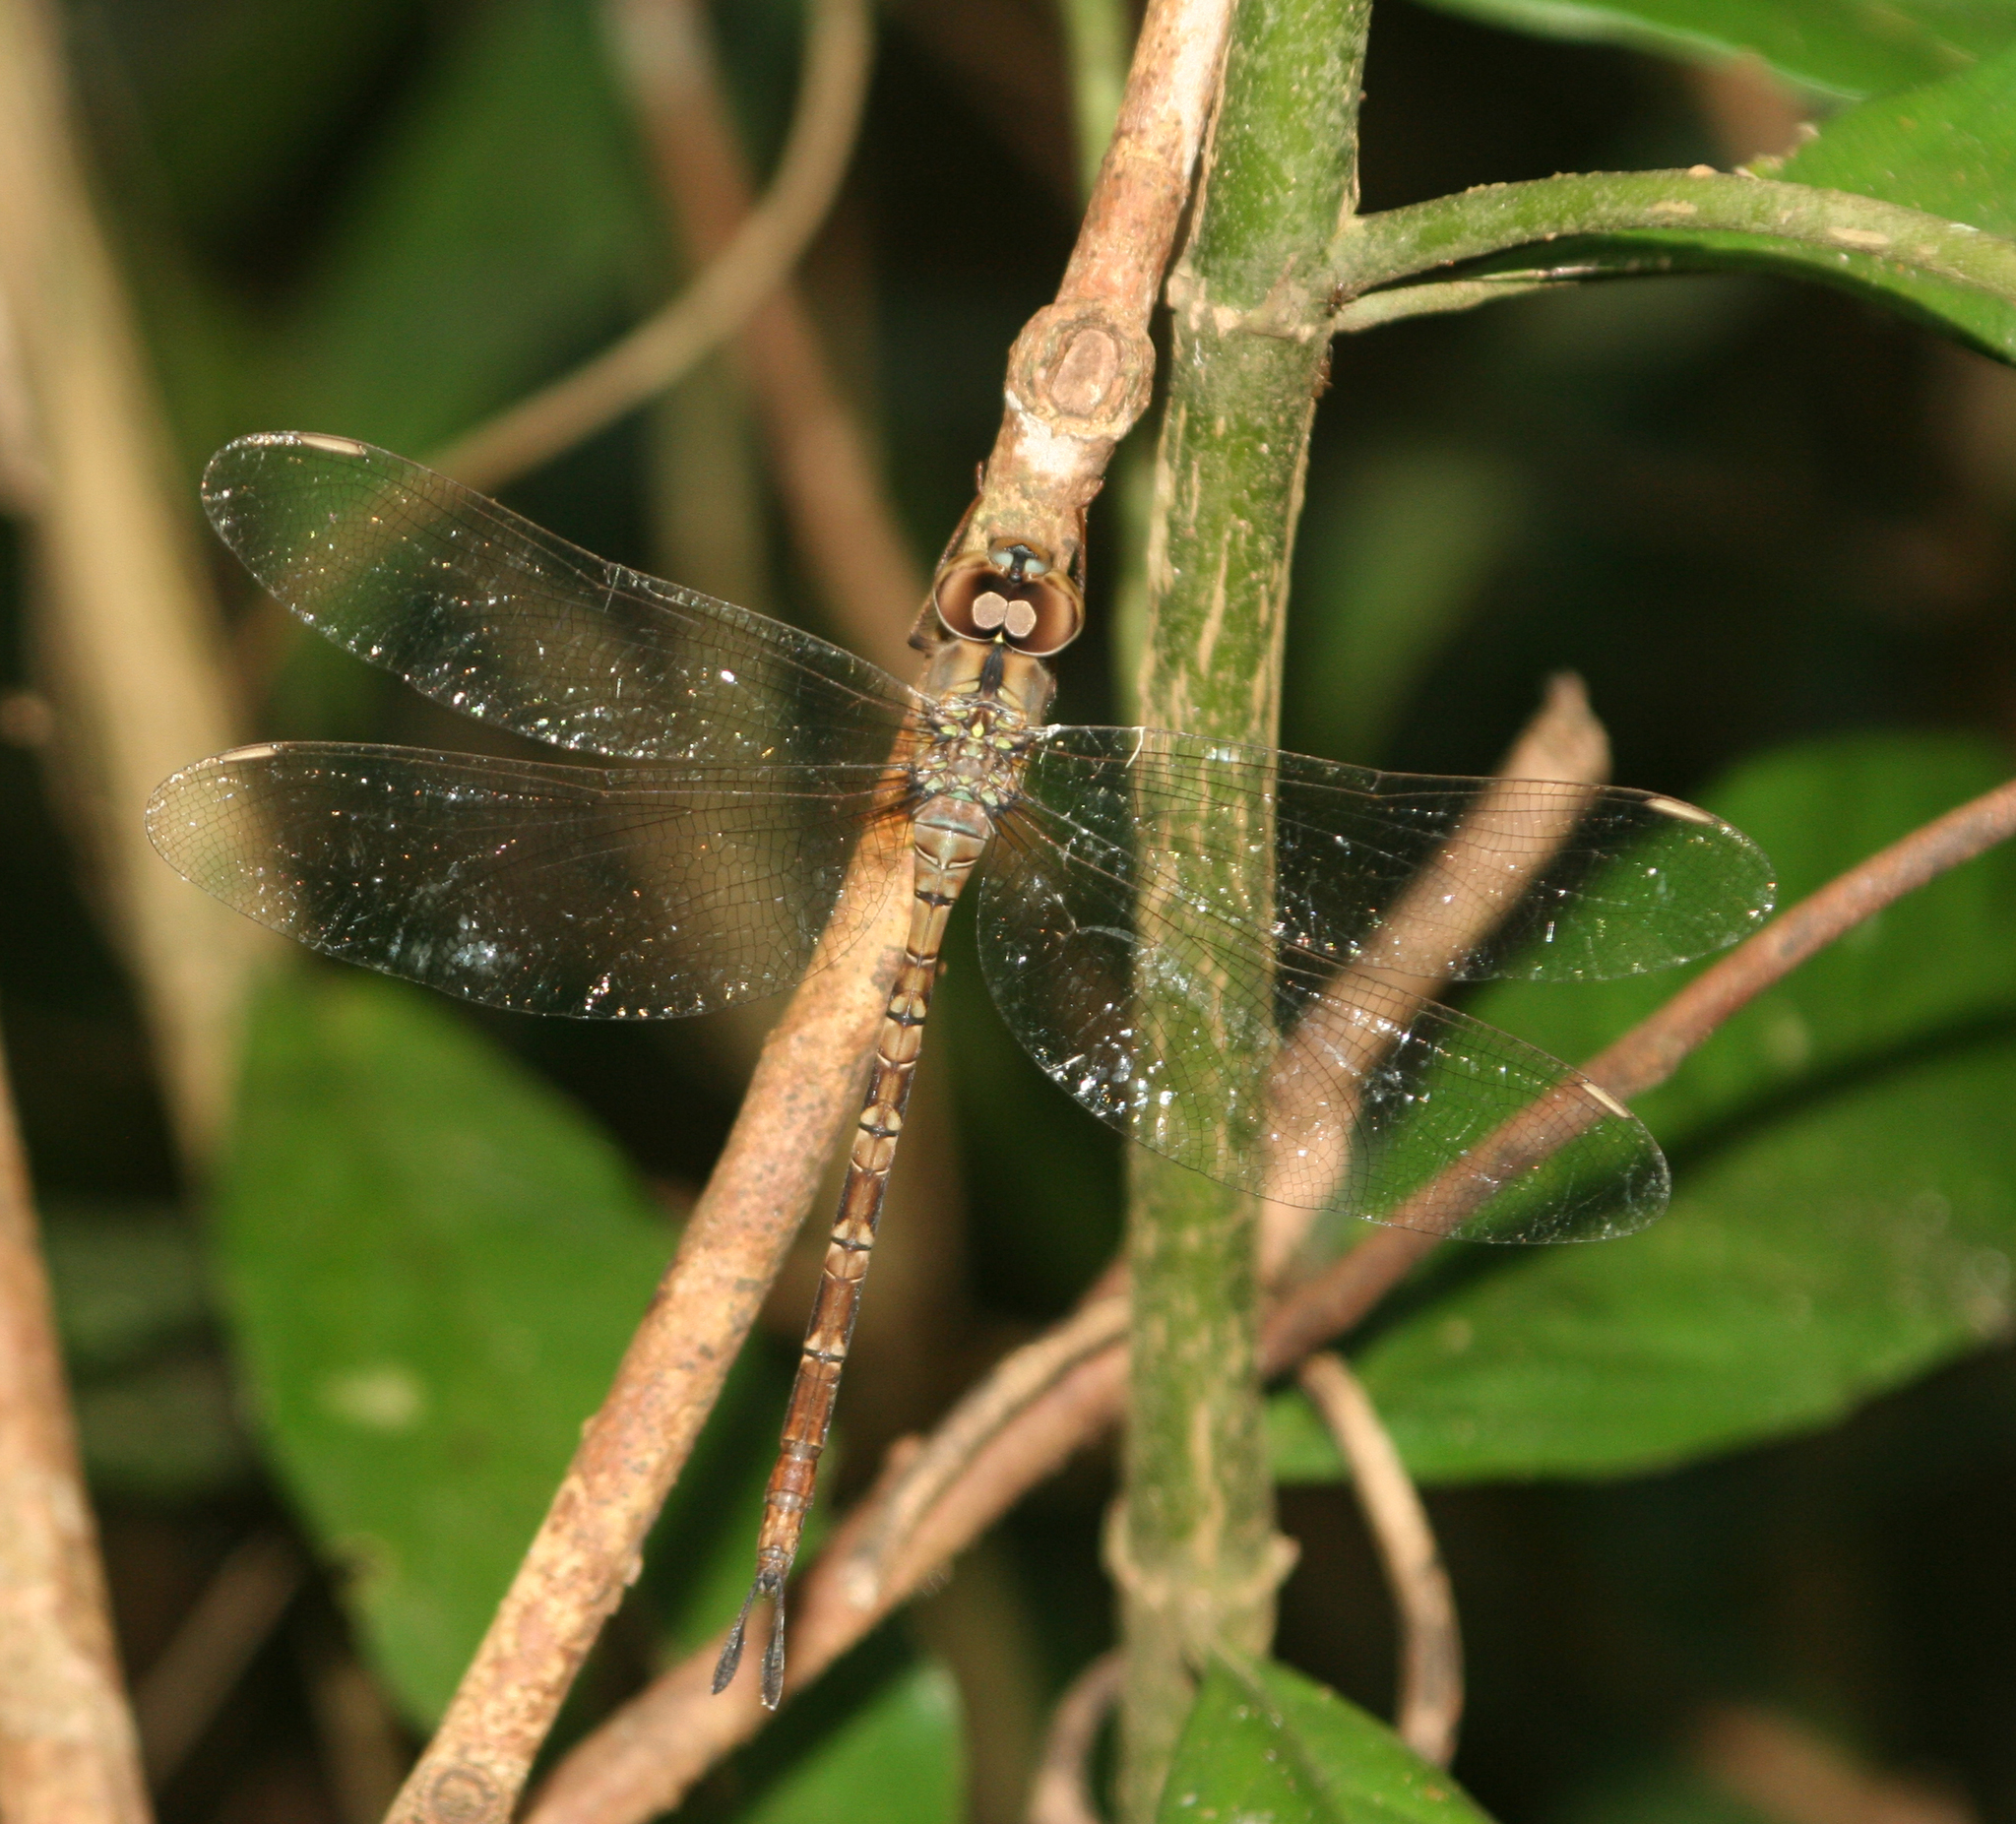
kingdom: Animalia
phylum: Arthropoda
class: Insecta
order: Odonata
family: Aeshnidae
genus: Gynacantha
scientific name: Gynacantha subinterrupta
